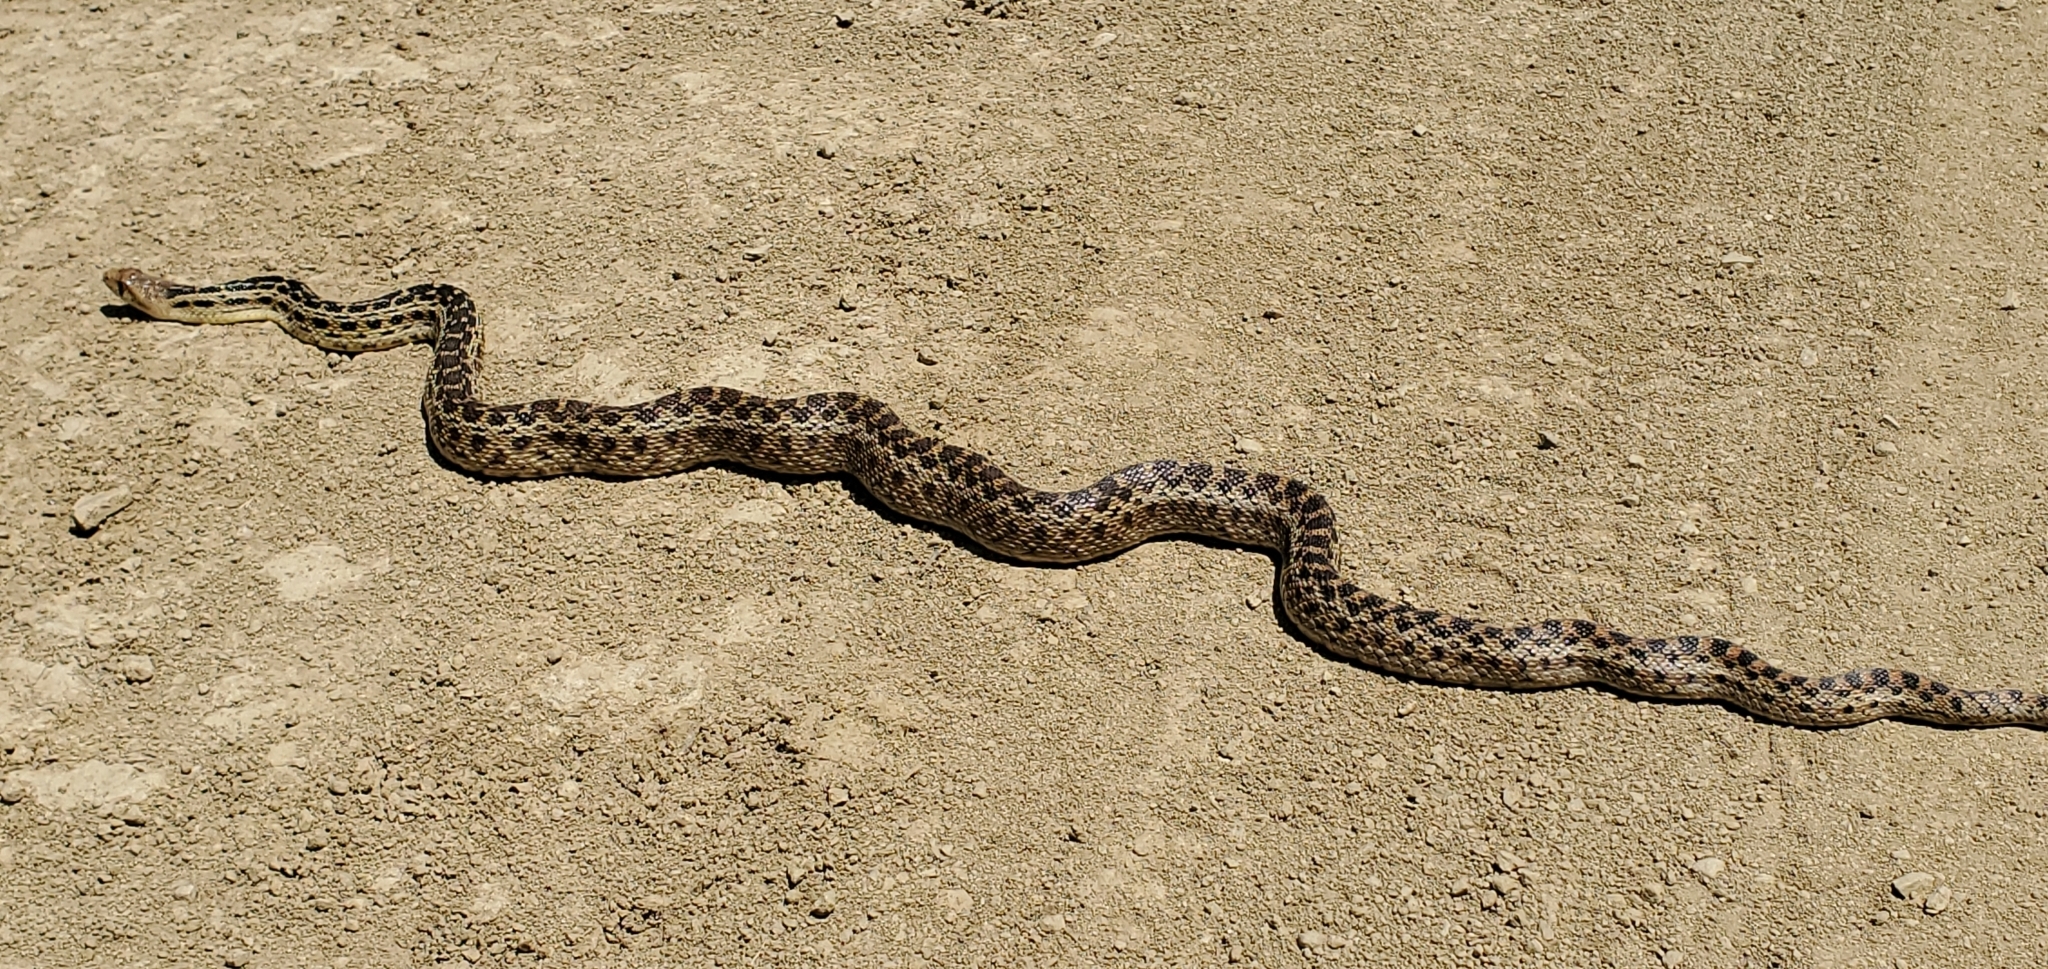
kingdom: Animalia
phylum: Chordata
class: Squamata
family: Colubridae
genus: Pituophis
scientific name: Pituophis catenifer
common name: Gopher snake
